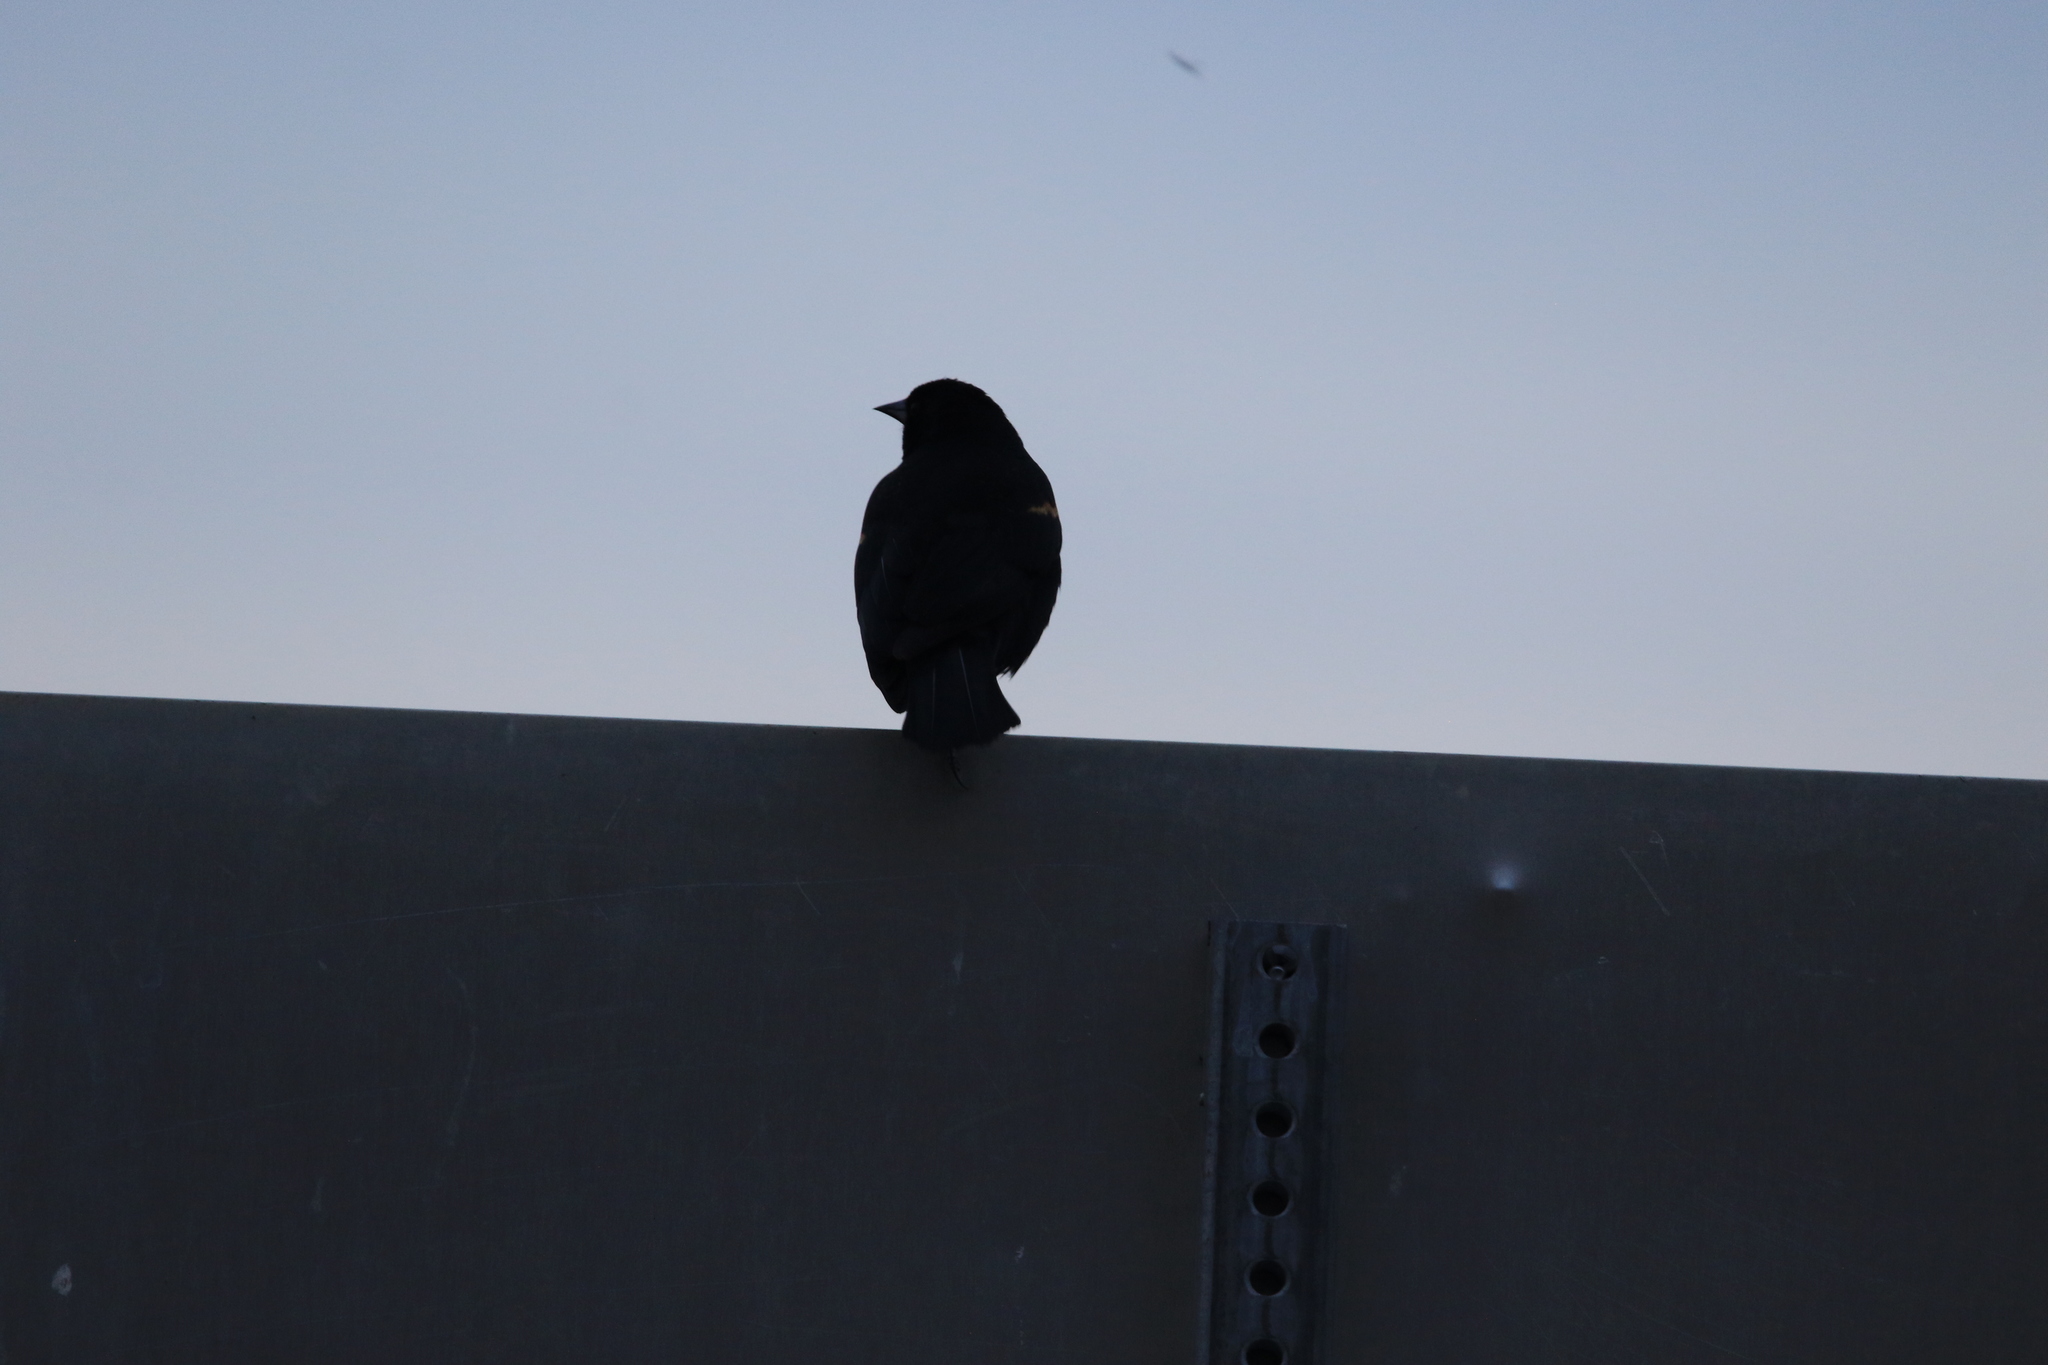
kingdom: Animalia
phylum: Chordata
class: Aves
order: Passeriformes
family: Icteridae
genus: Agelaius
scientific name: Agelaius phoeniceus
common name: Red-winged blackbird
